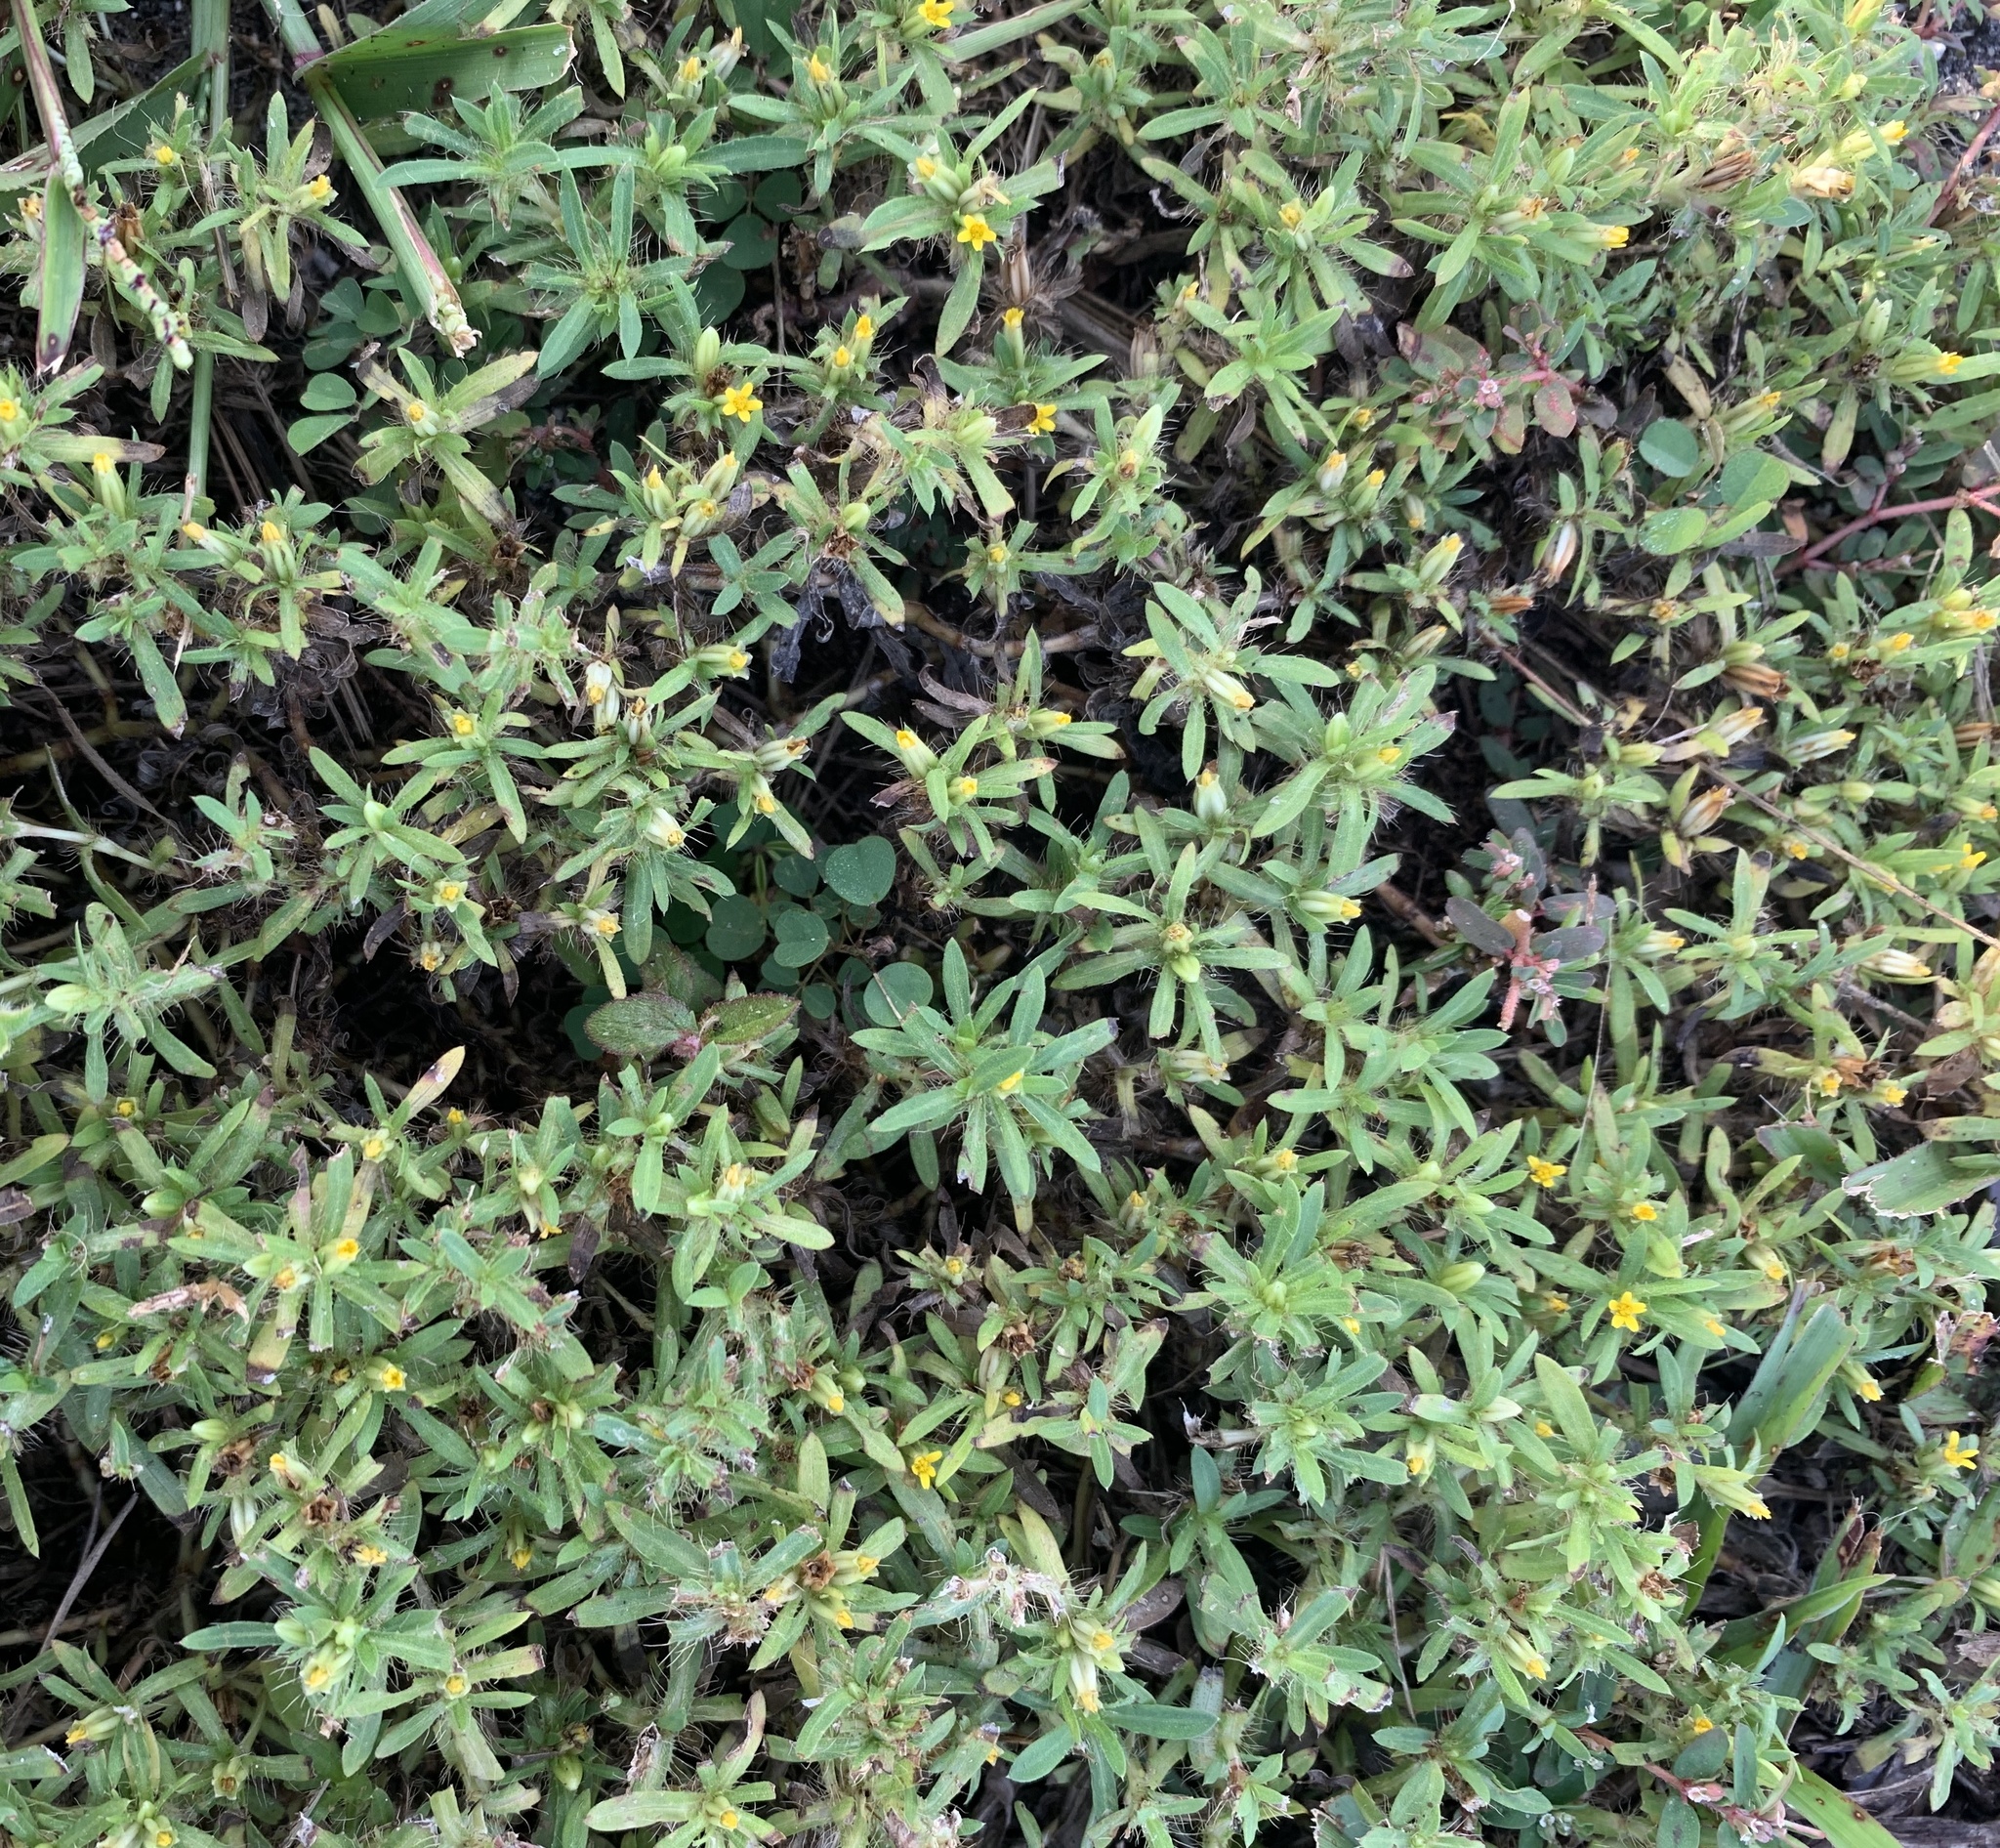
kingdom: Plantae
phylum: Tracheophyta
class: Magnoliopsida
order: Asterales
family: Asteraceae
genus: Pectis
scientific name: Pectis prostrata
